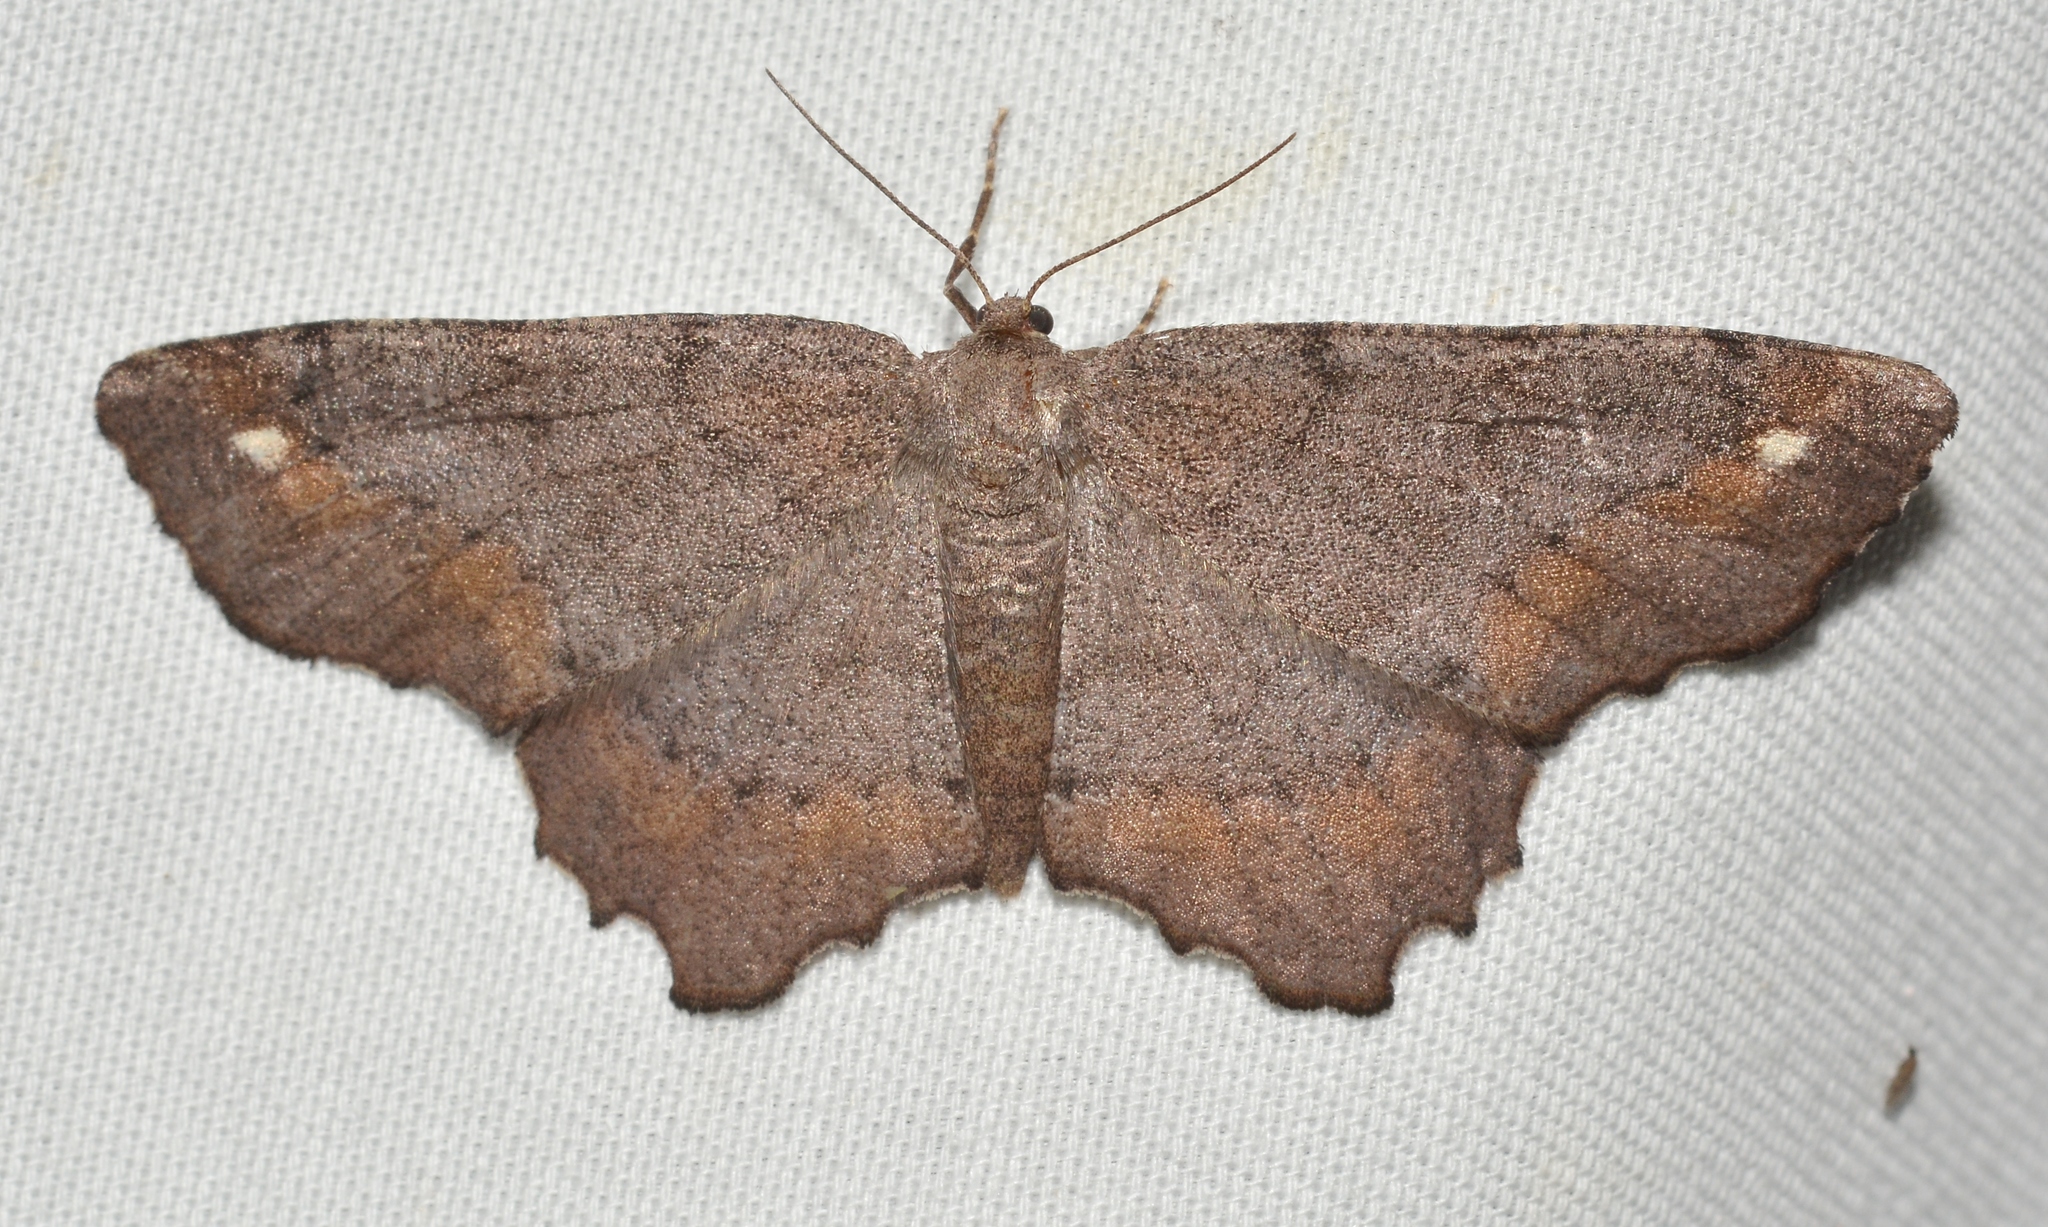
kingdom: Animalia
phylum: Arthropoda
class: Insecta
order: Lepidoptera
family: Geometridae
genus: Hypagyrtis
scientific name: Hypagyrtis esther
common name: Esther moth
